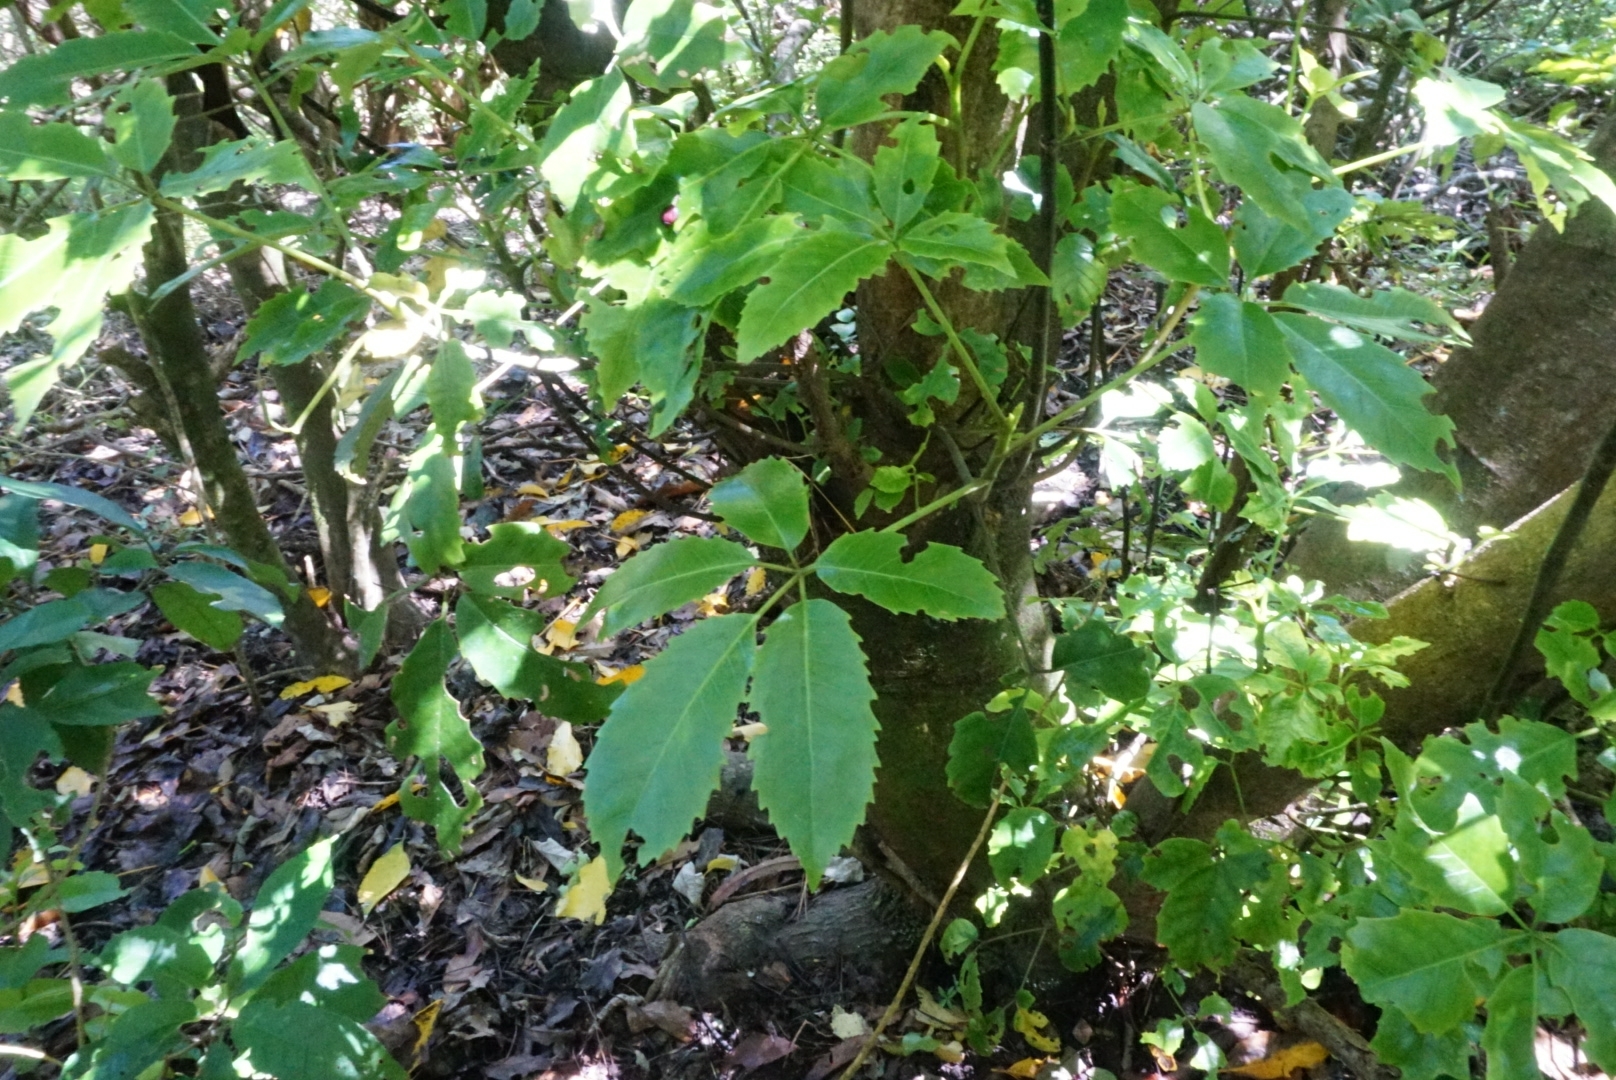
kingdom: Plantae
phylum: Tracheophyta
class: Magnoliopsida
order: Apiales
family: Araliaceae
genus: Neopanax
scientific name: Neopanax arboreus
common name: Five-fingers
